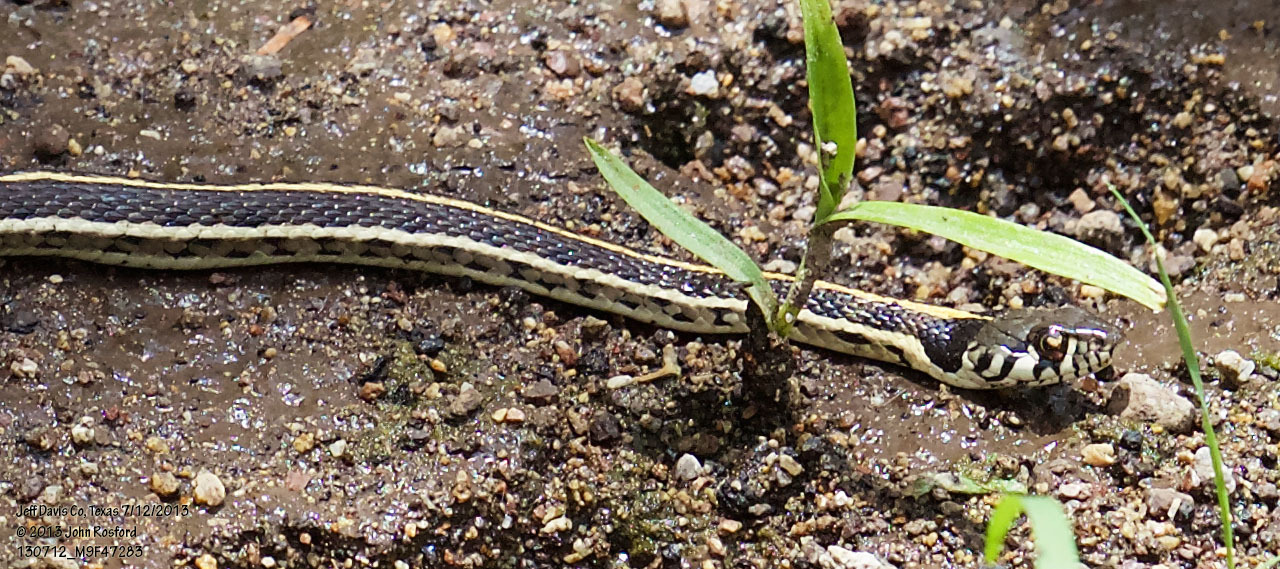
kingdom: Animalia
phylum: Chordata
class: Squamata
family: Colubridae
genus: Thamnophis
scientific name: Thamnophis cyrtopsis
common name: Black-necked gartersnake
